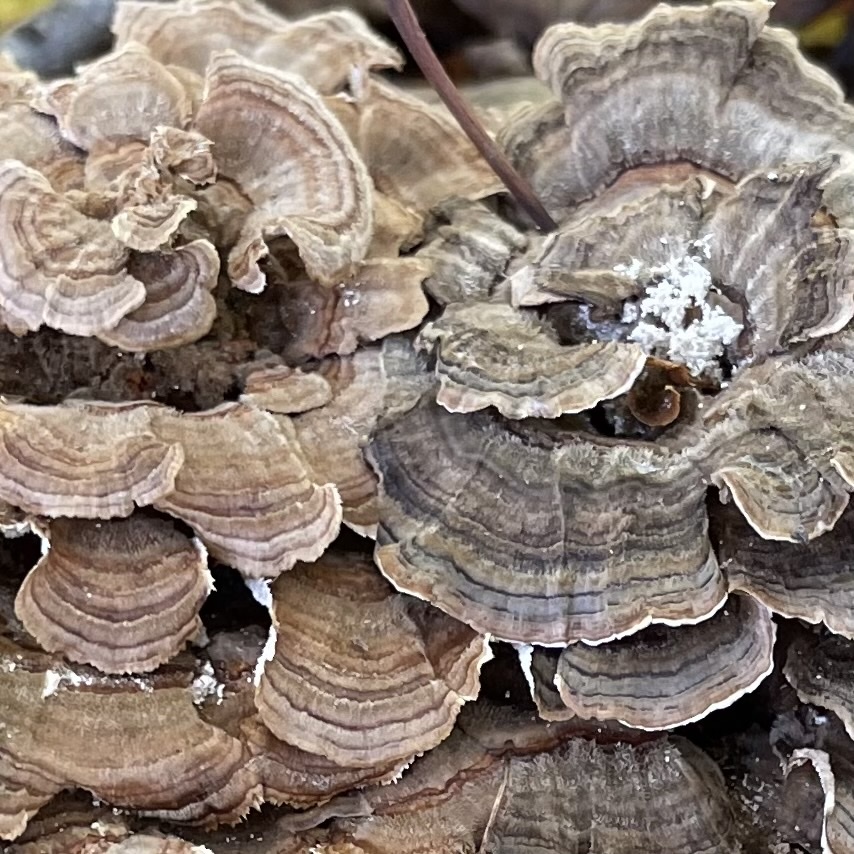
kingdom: Fungi
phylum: Basidiomycota
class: Agaricomycetes
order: Polyporales
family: Polyporaceae
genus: Trametes
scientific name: Trametes versicolor
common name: Turkeytail
